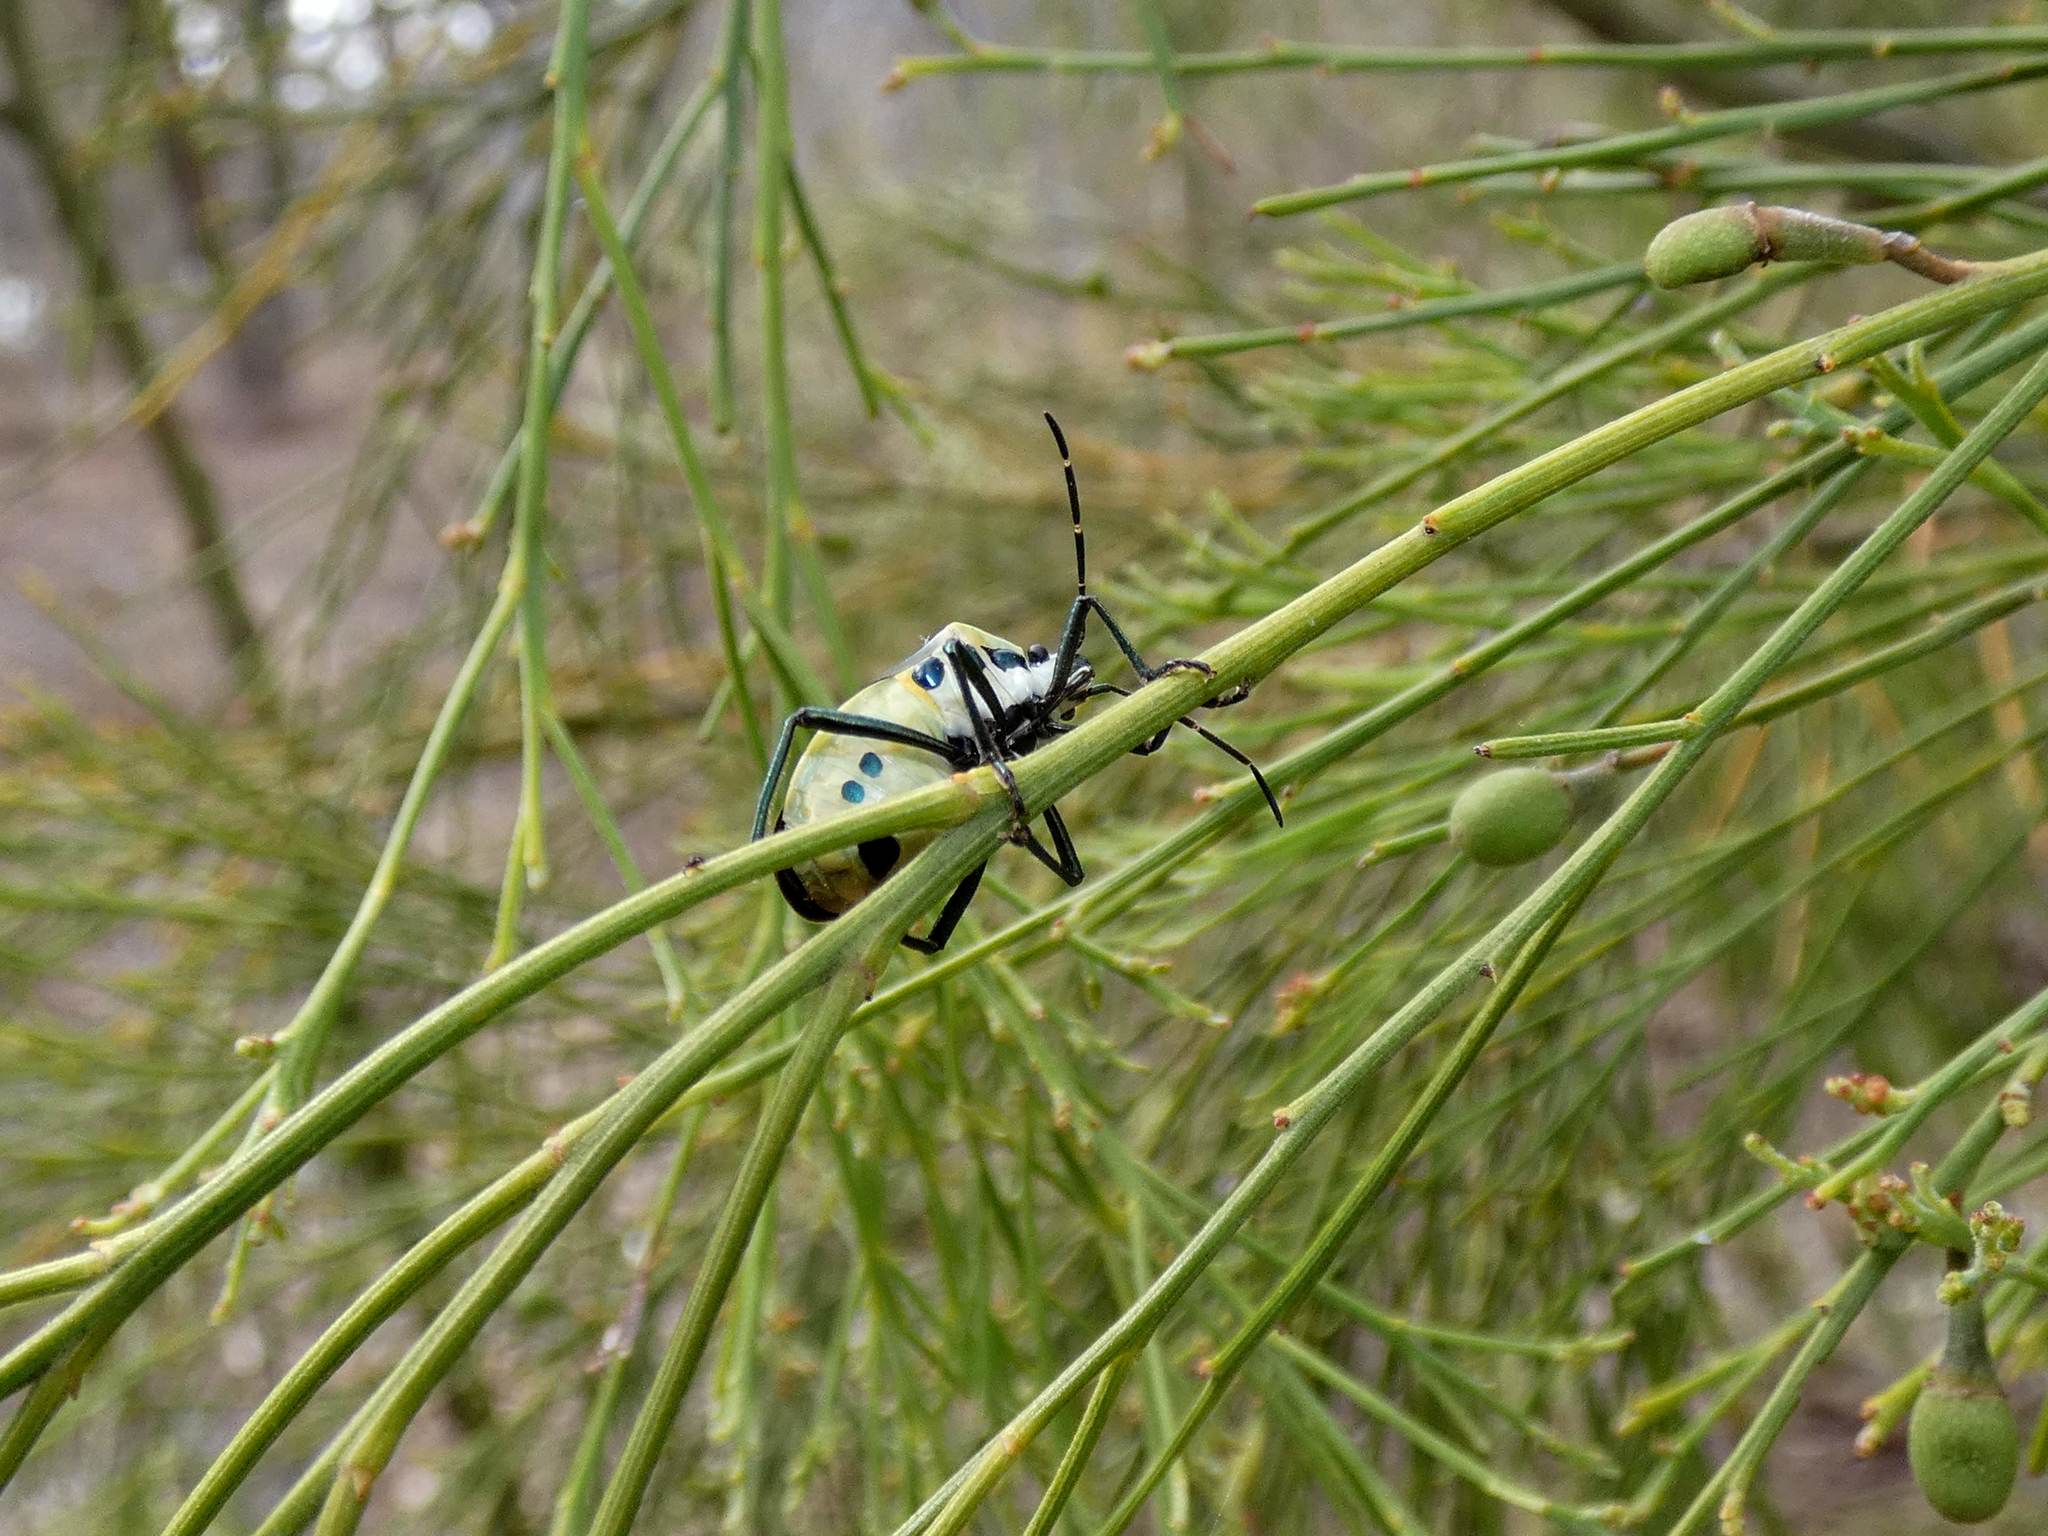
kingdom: Animalia
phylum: Arthropoda
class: Insecta
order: Hemiptera
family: Pentatomidae
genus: Commius
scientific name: Commius
